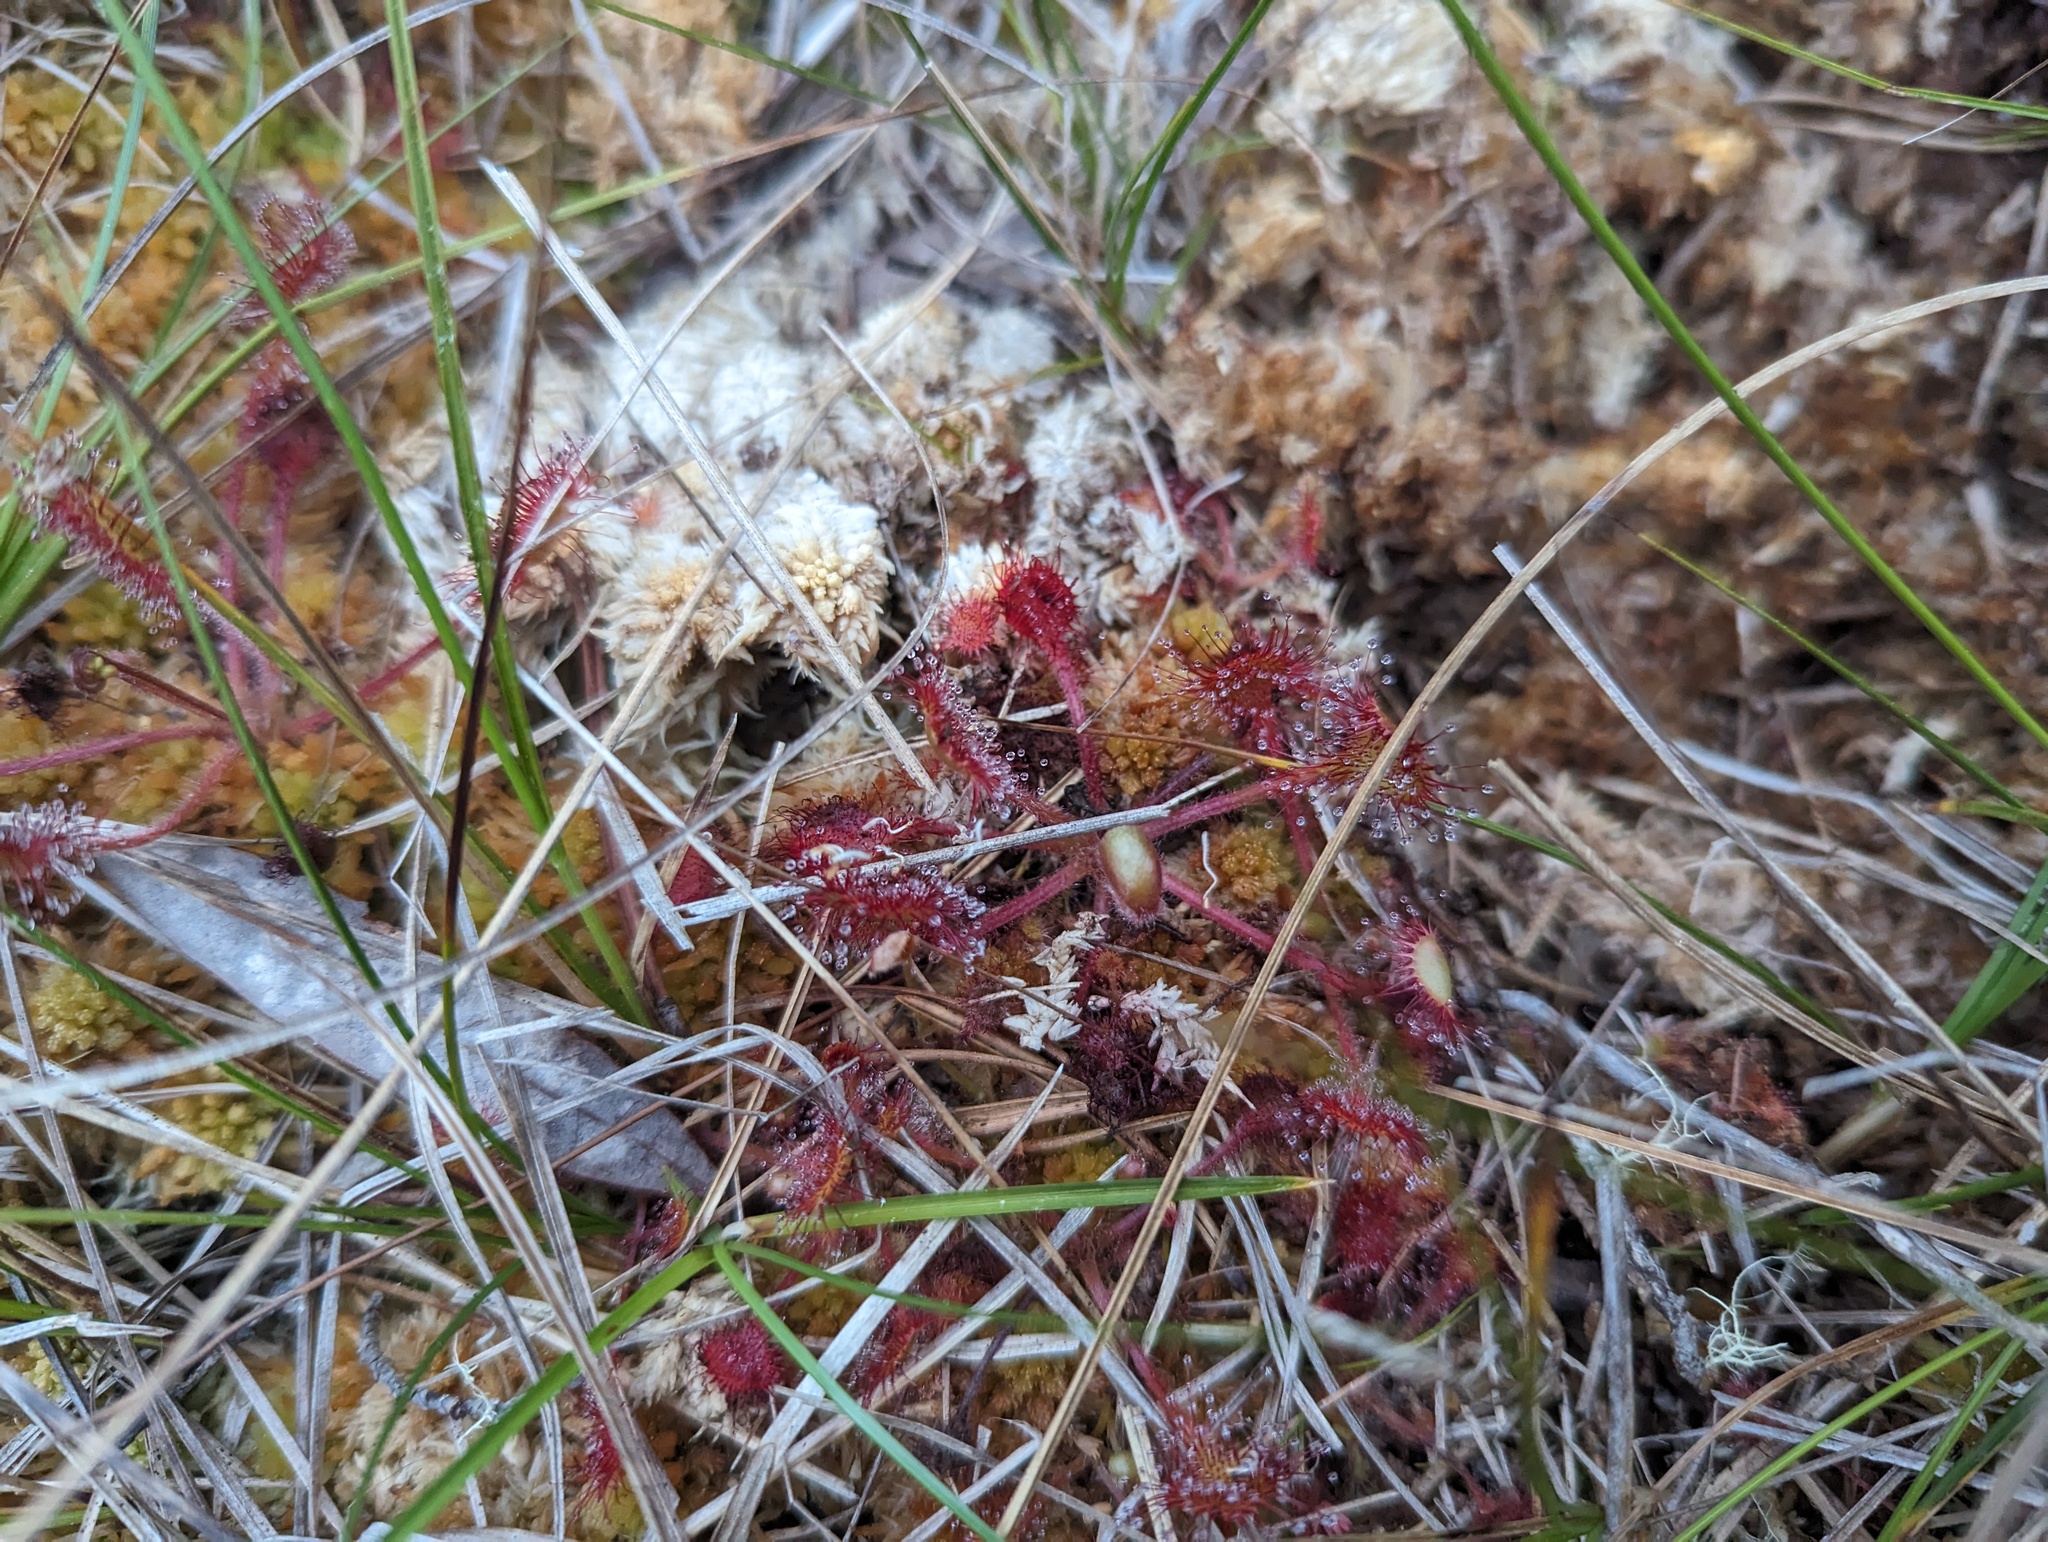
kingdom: Plantae
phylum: Tracheophyta
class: Magnoliopsida
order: Caryophyllales
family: Droseraceae
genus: Drosera
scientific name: Drosera rotundifolia
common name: Round-leaved sundew
